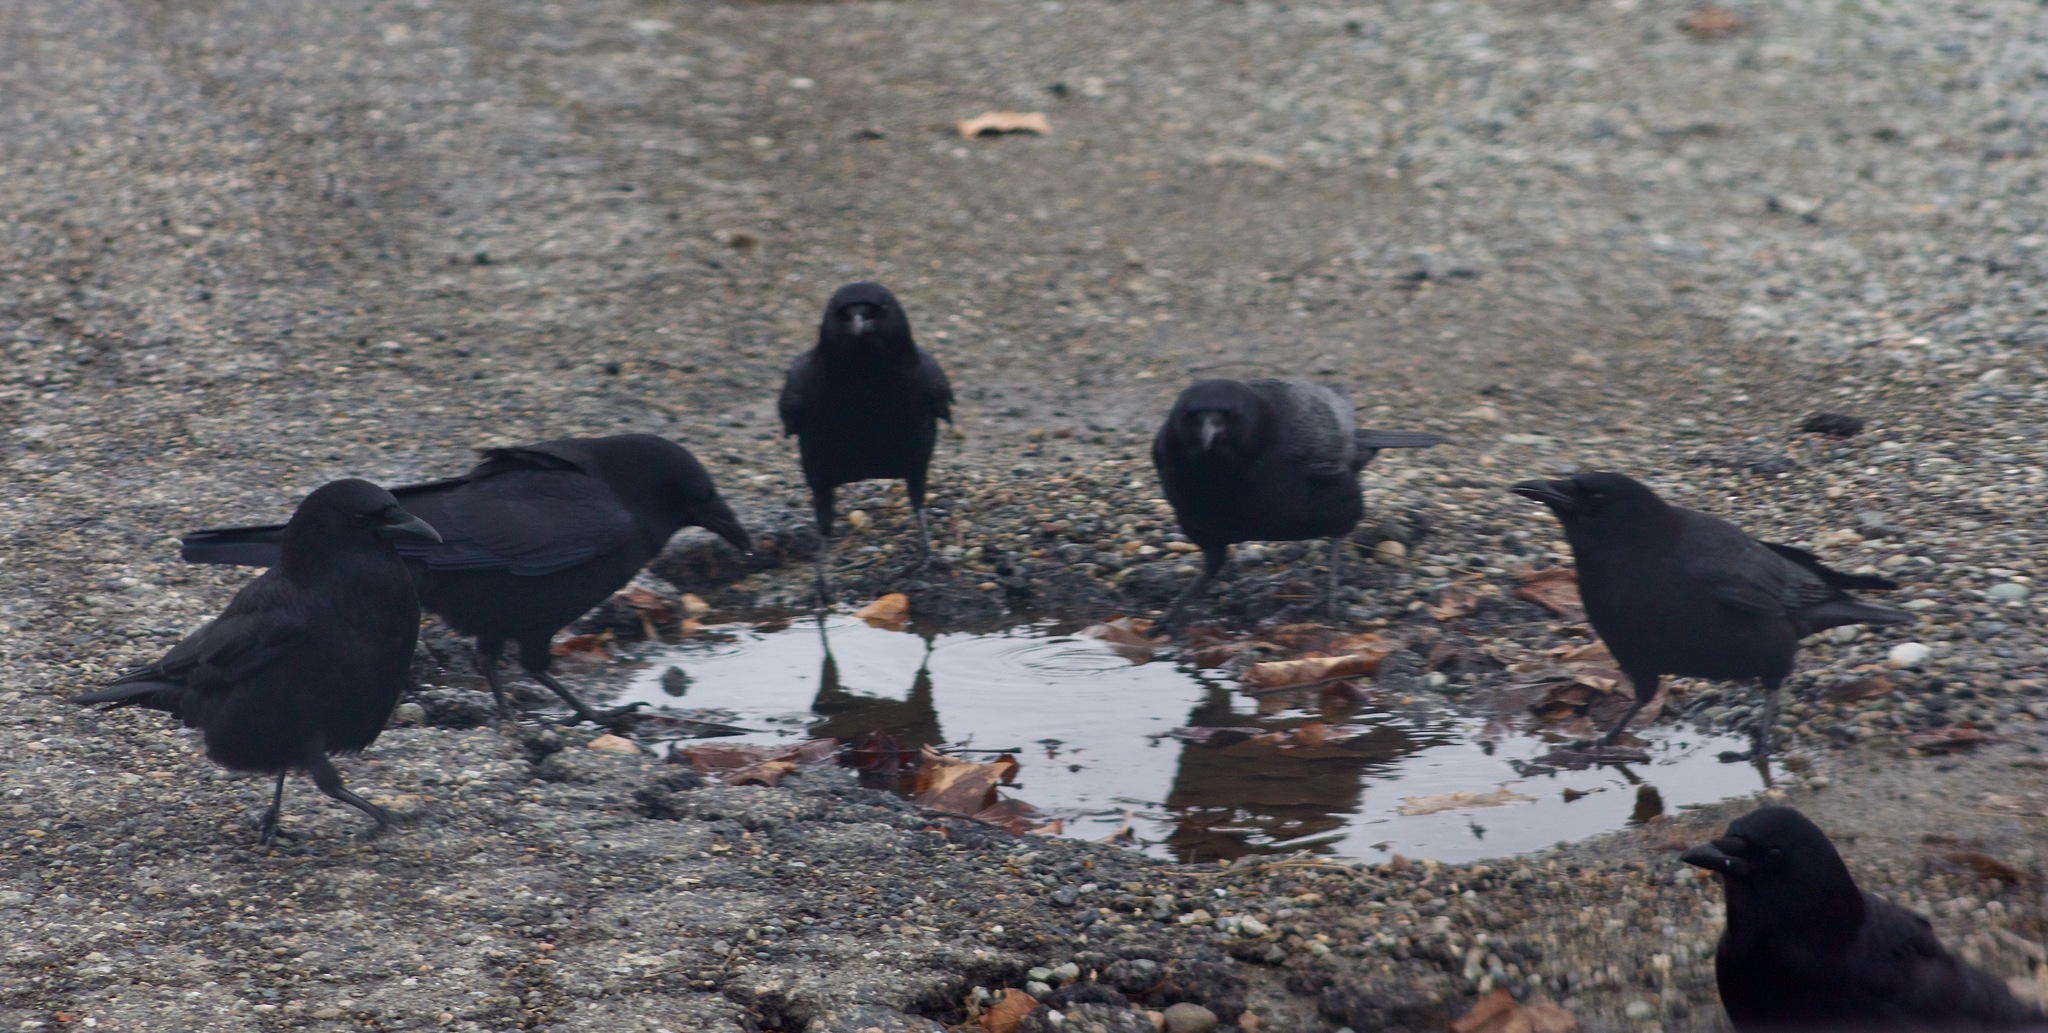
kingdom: Animalia
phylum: Chordata
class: Aves
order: Passeriformes
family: Corvidae
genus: Corvus
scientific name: Corvus brachyrhynchos
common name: American crow
